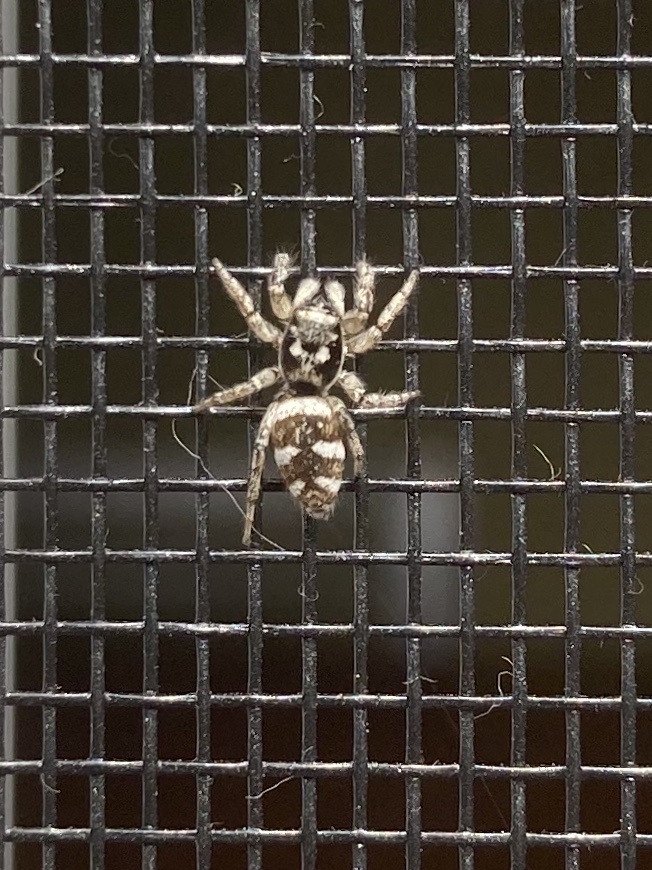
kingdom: Animalia
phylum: Arthropoda
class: Arachnida
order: Araneae
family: Salticidae
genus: Salticus
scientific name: Salticus scenicus
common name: Zebra jumper
